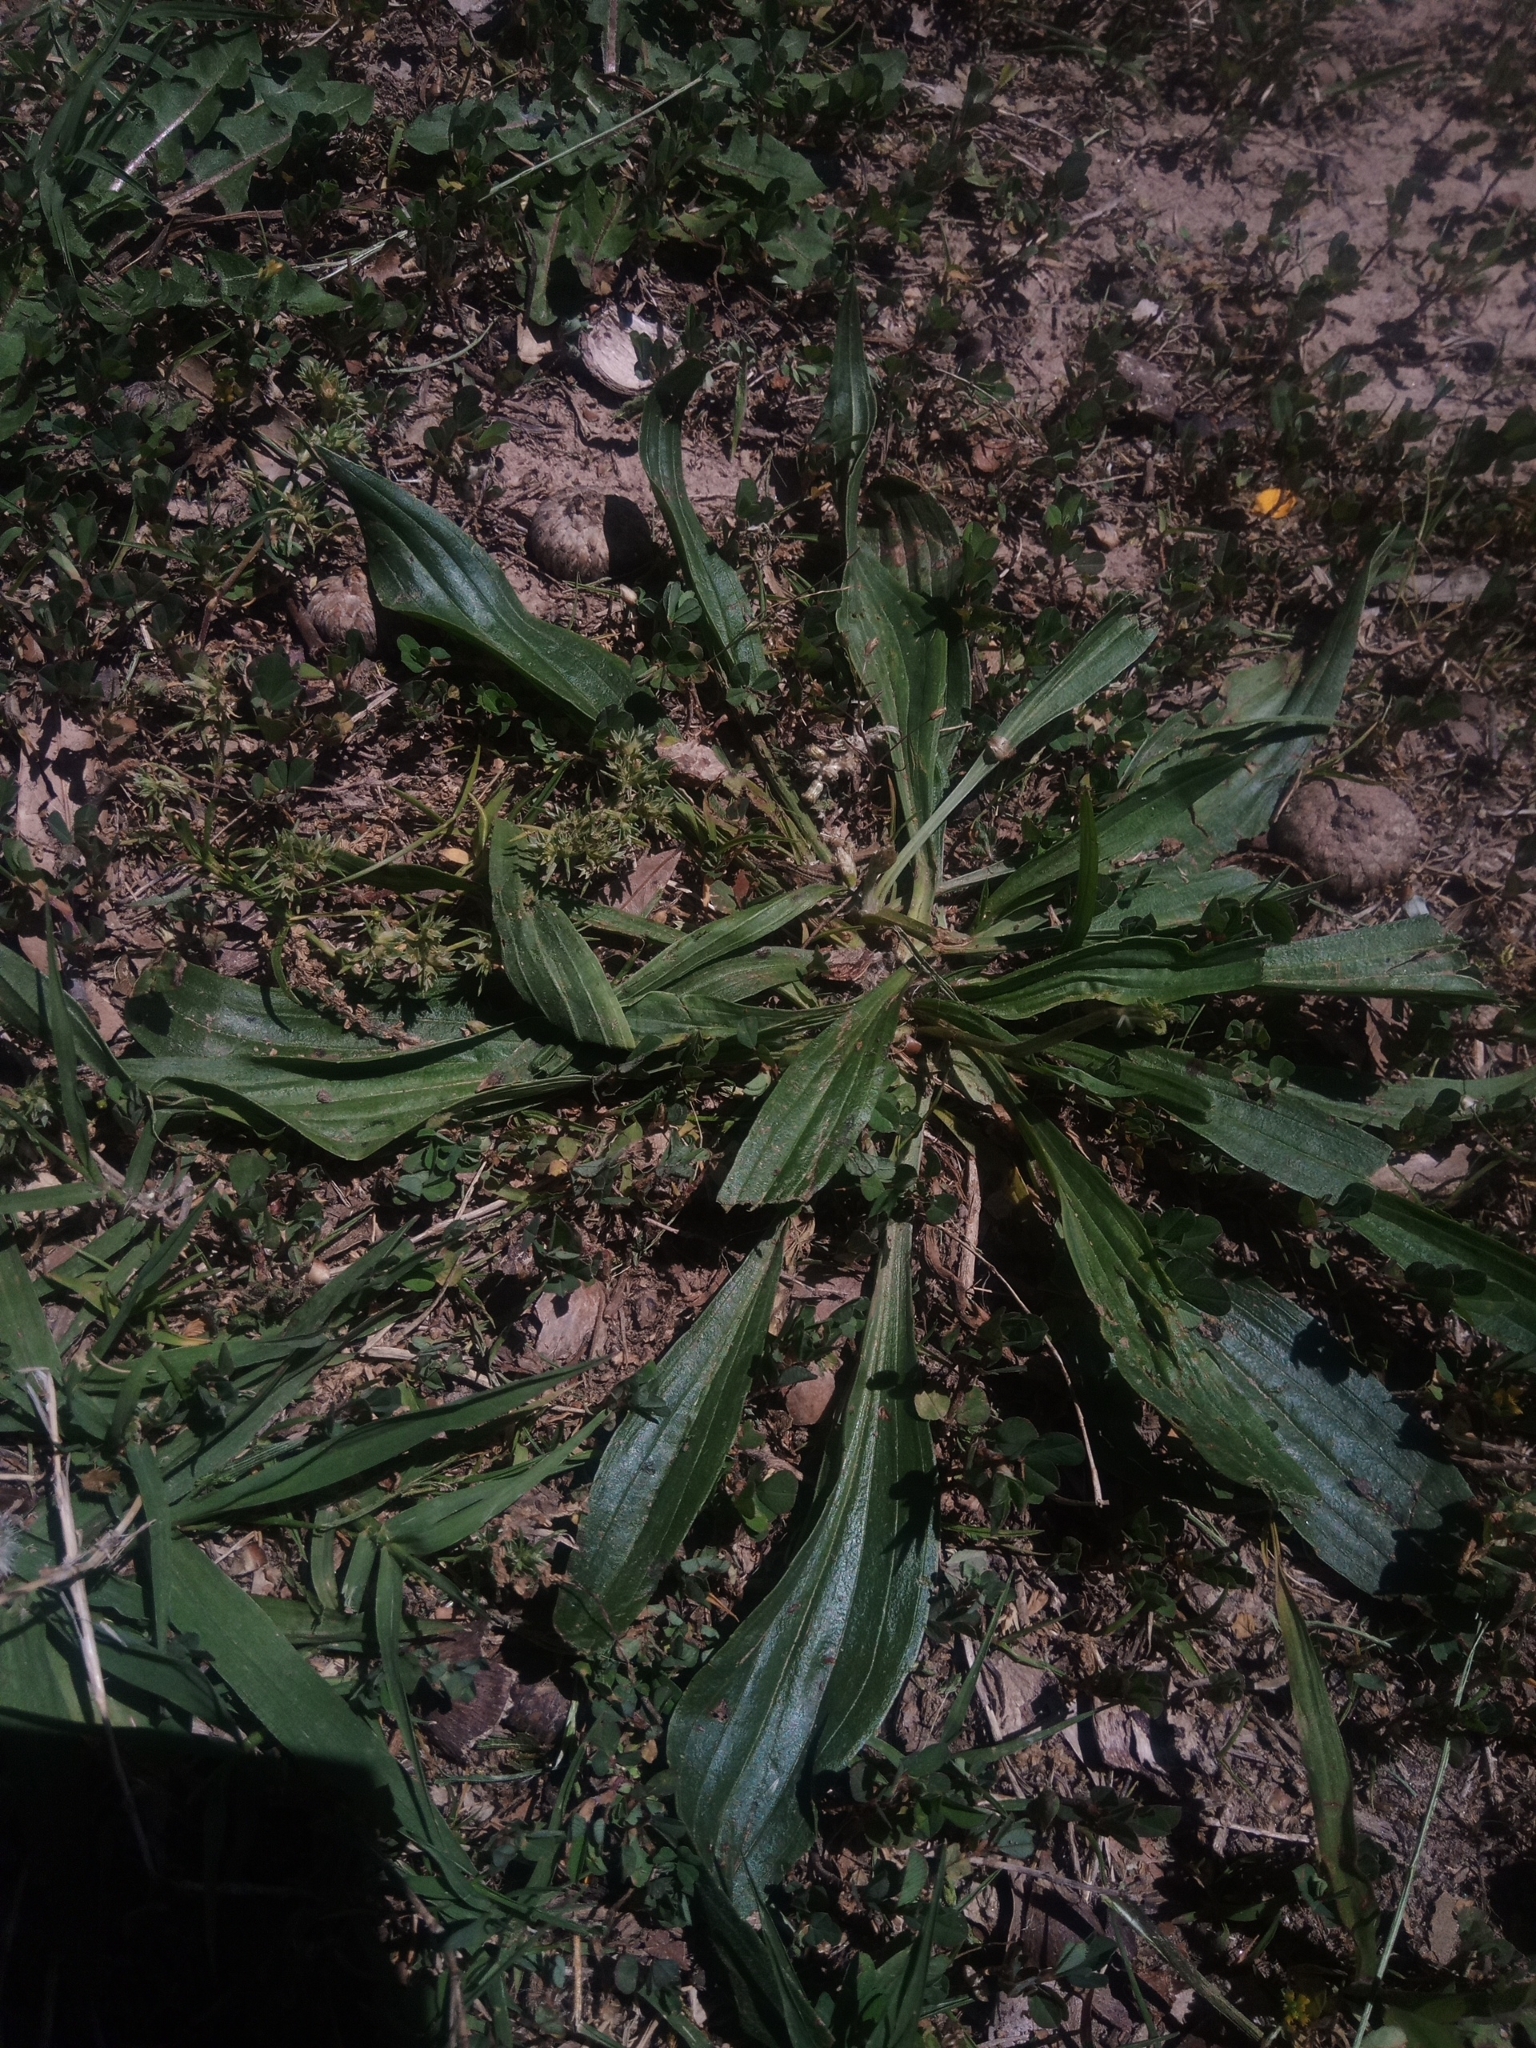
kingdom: Plantae
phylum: Tracheophyta
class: Magnoliopsida
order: Lamiales
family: Plantaginaceae
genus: Plantago
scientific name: Plantago lanceolata
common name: Ribwort plantain
